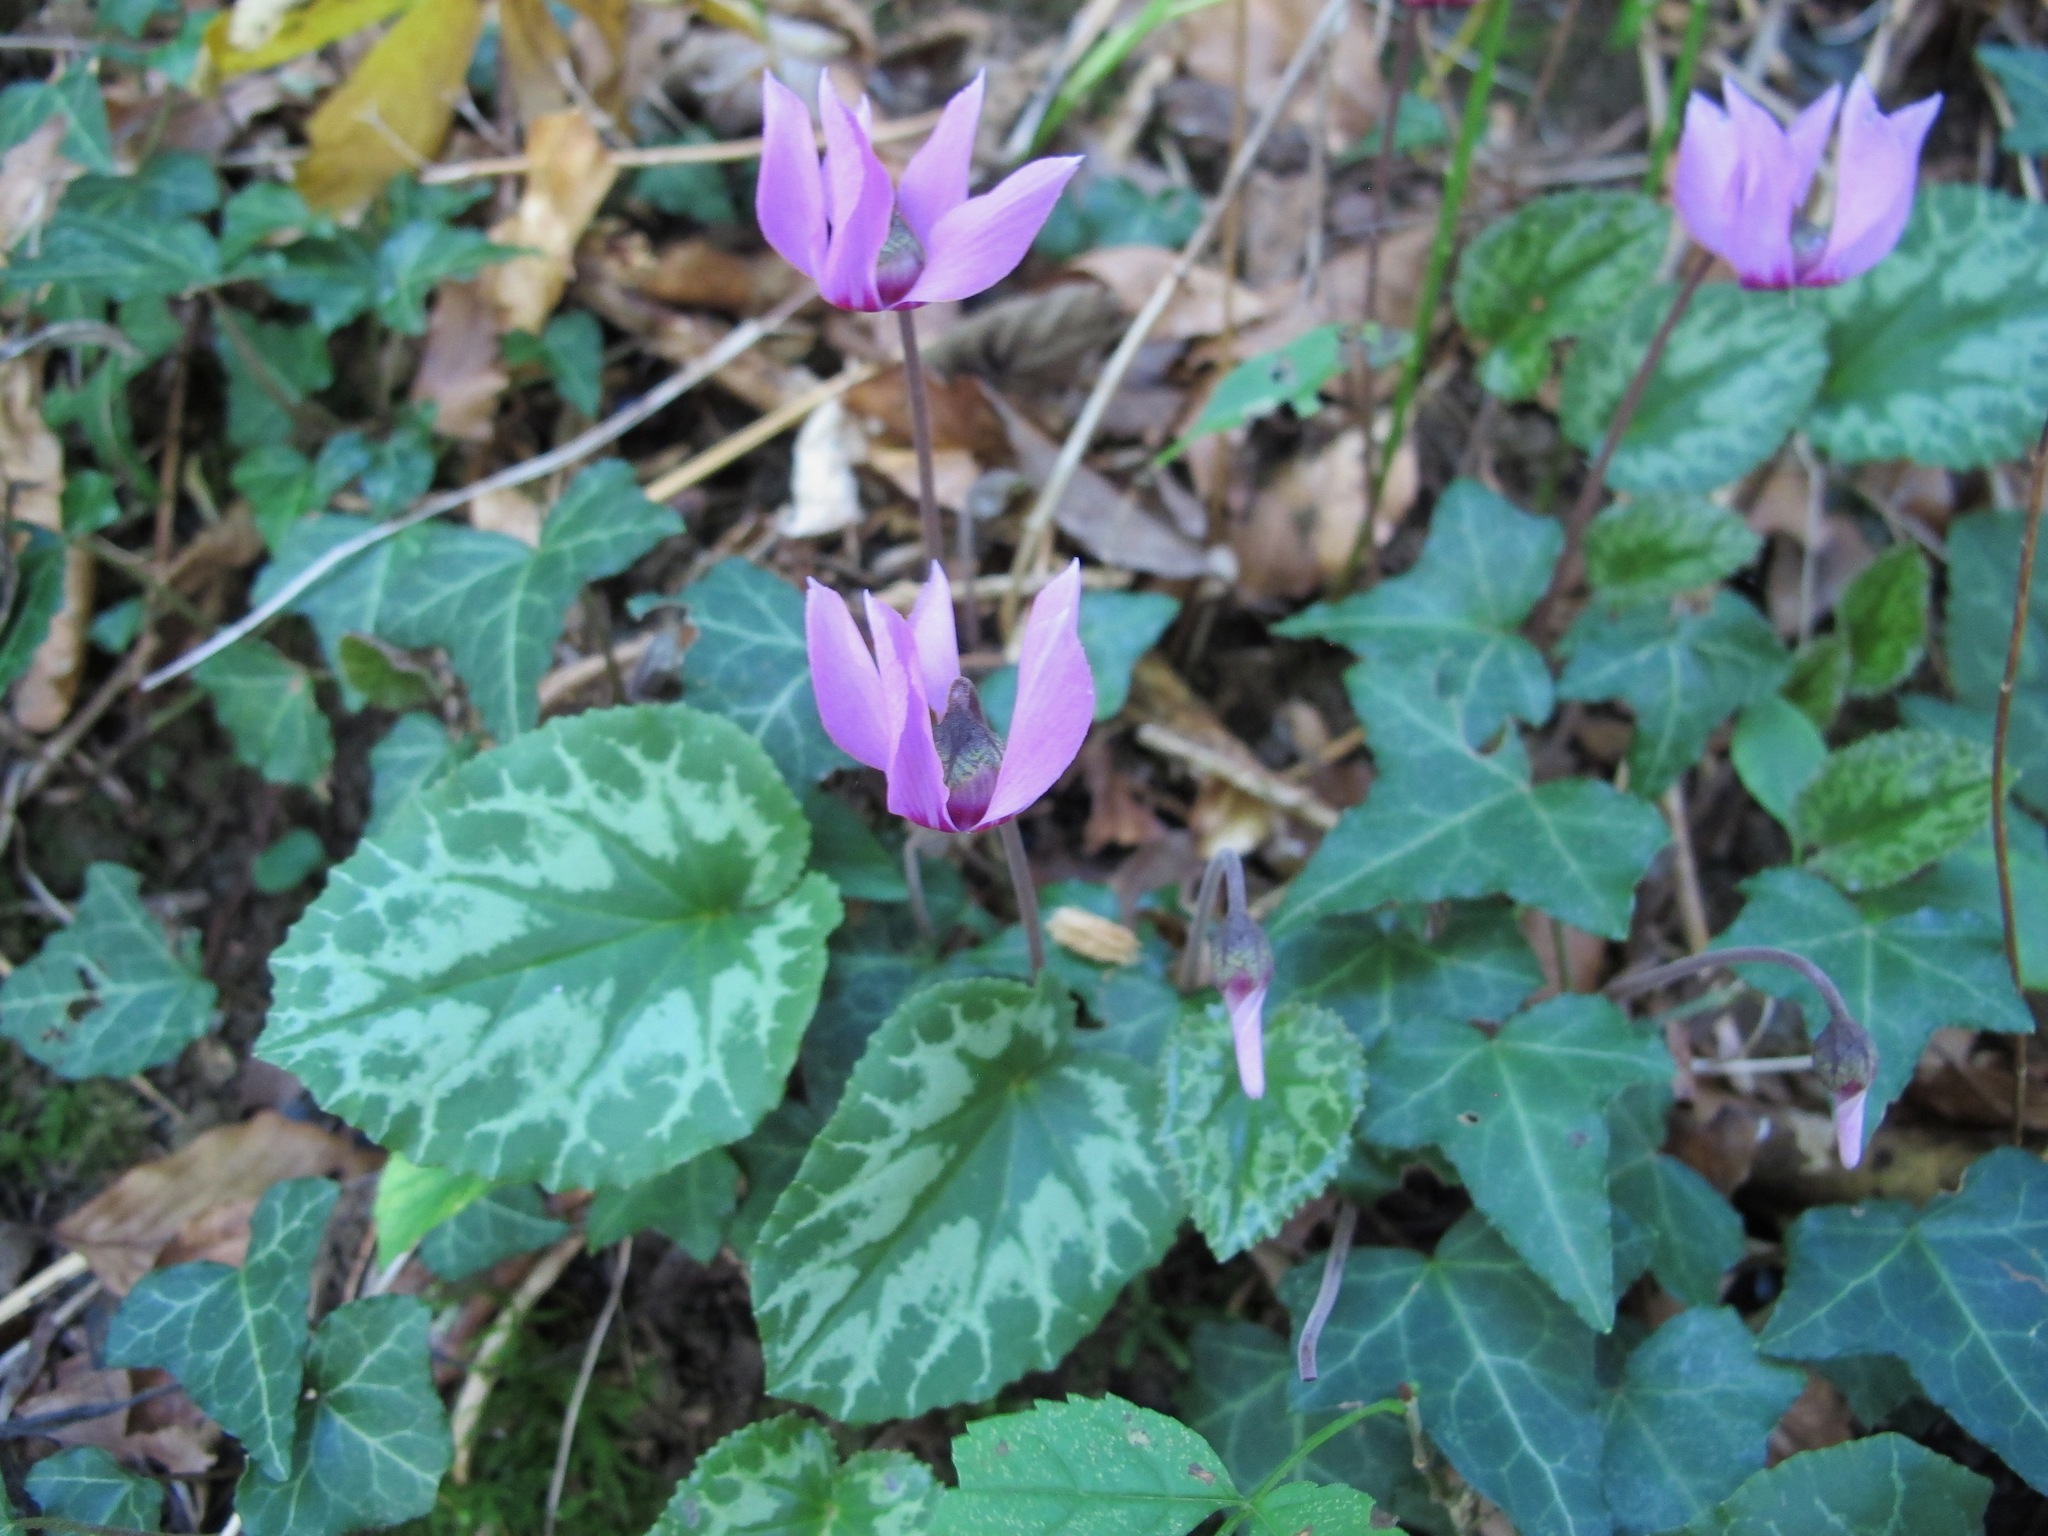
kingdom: Plantae
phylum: Tracheophyta
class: Magnoliopsida
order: Ericales
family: Primulaceae
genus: Cyclamen
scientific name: Cyclamen purpurascens
